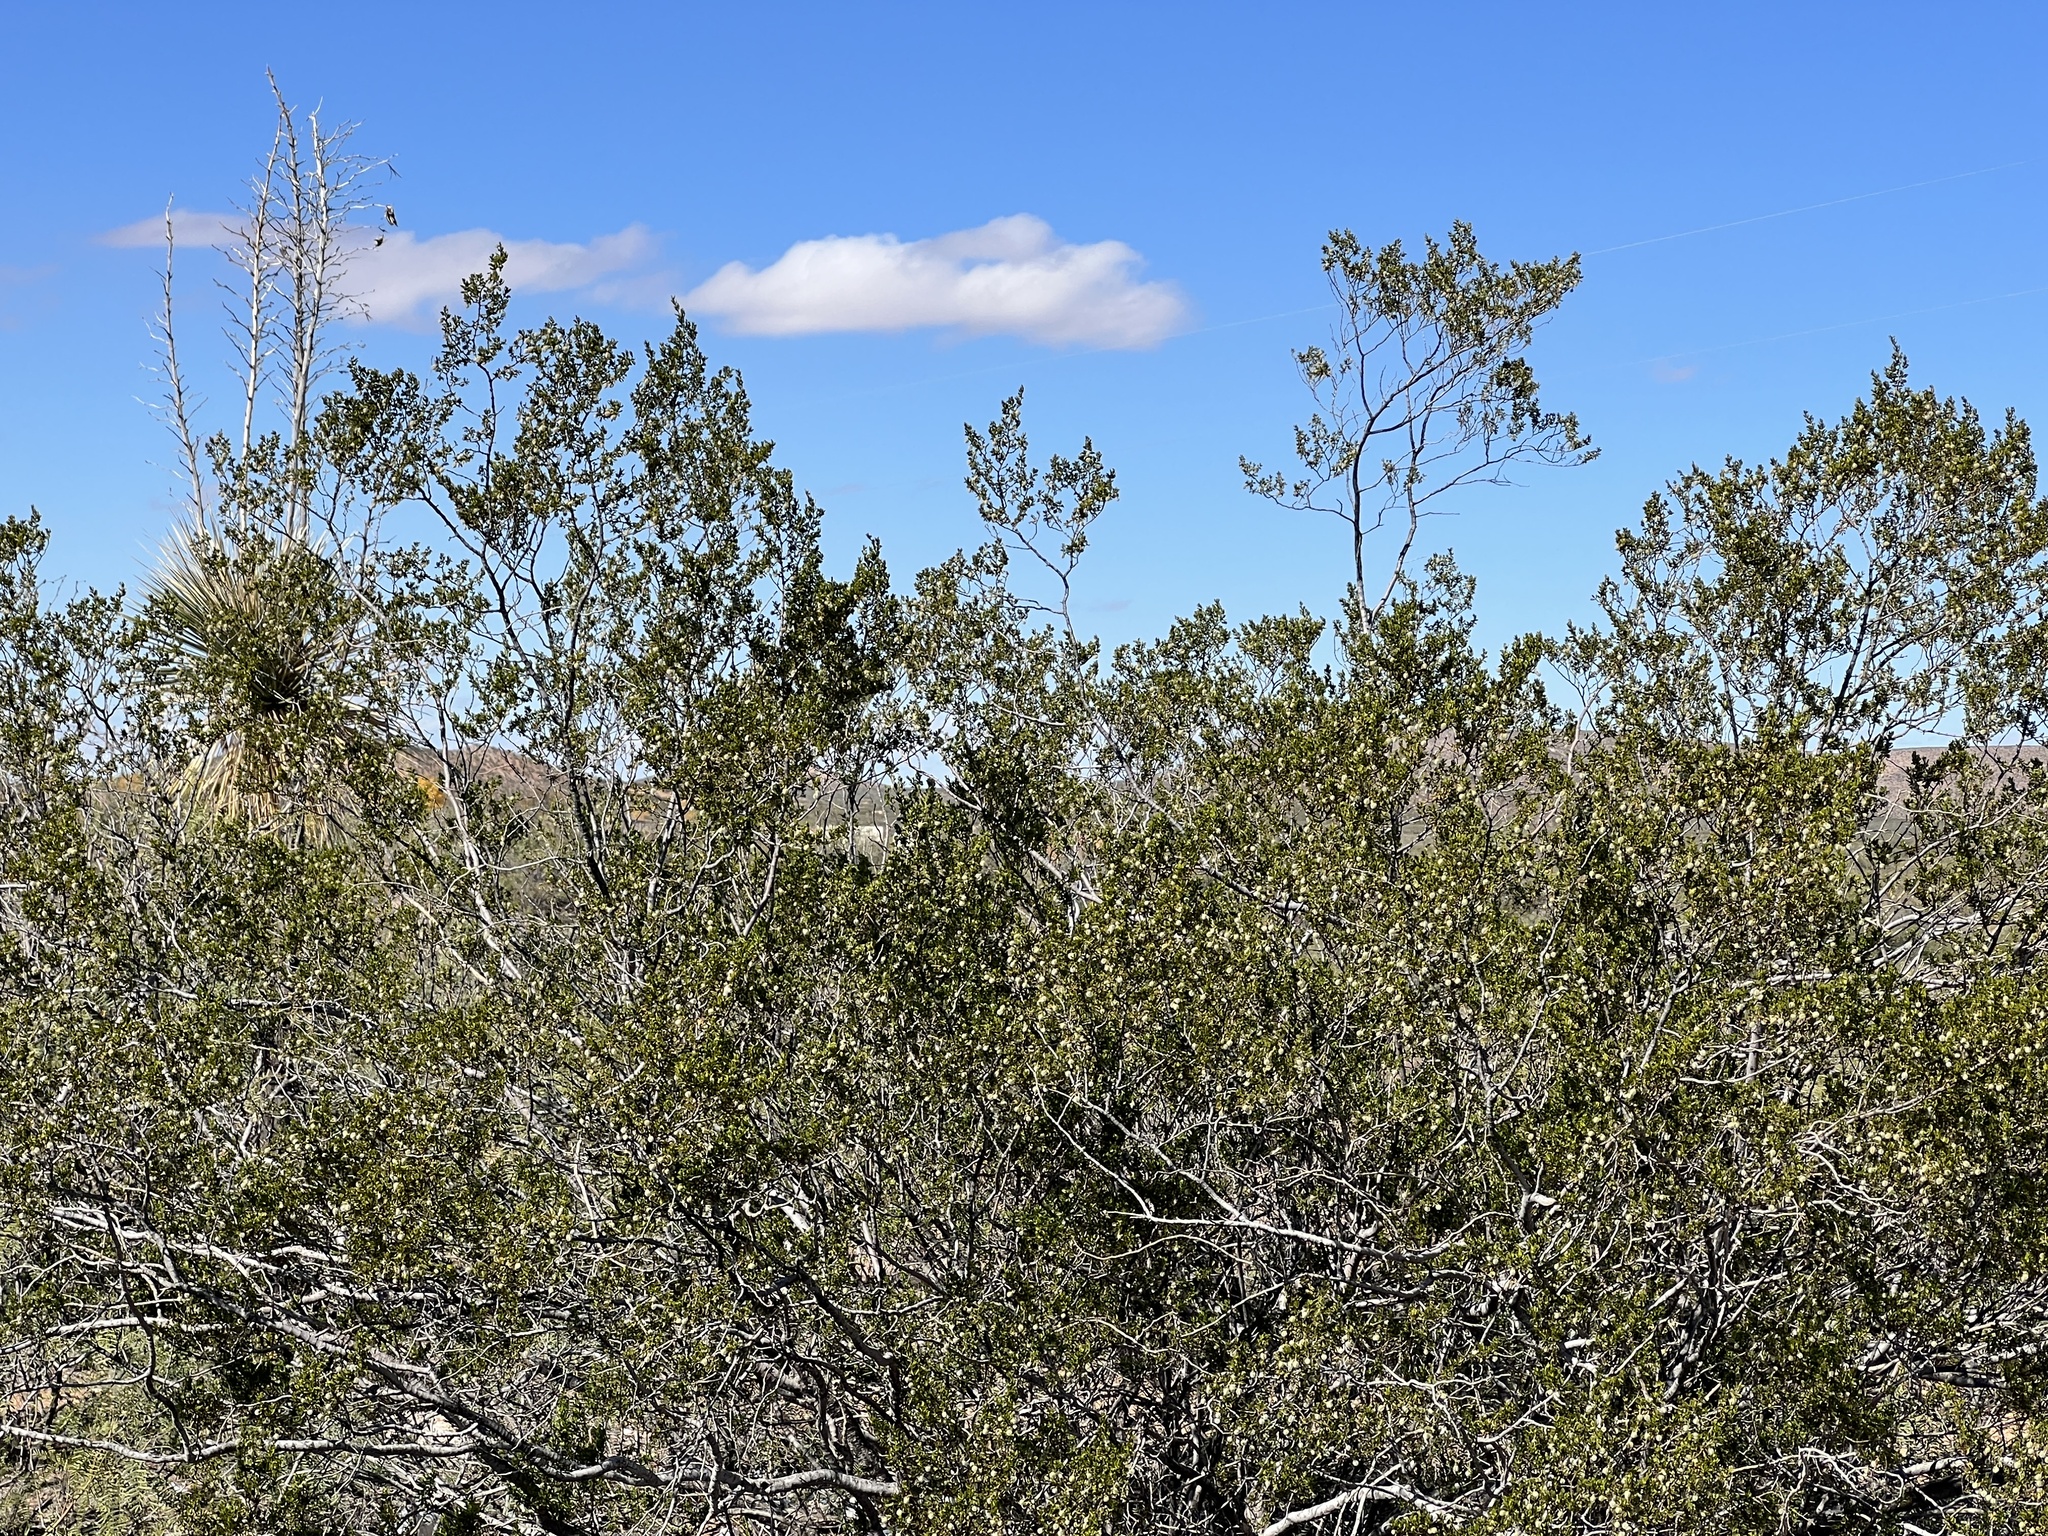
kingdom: Plantae
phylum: Tracheophyta
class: Magnoliopsida
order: Zygophyllales
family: Zygophyllaceae
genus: Larrea
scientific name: Larrea tridentata
